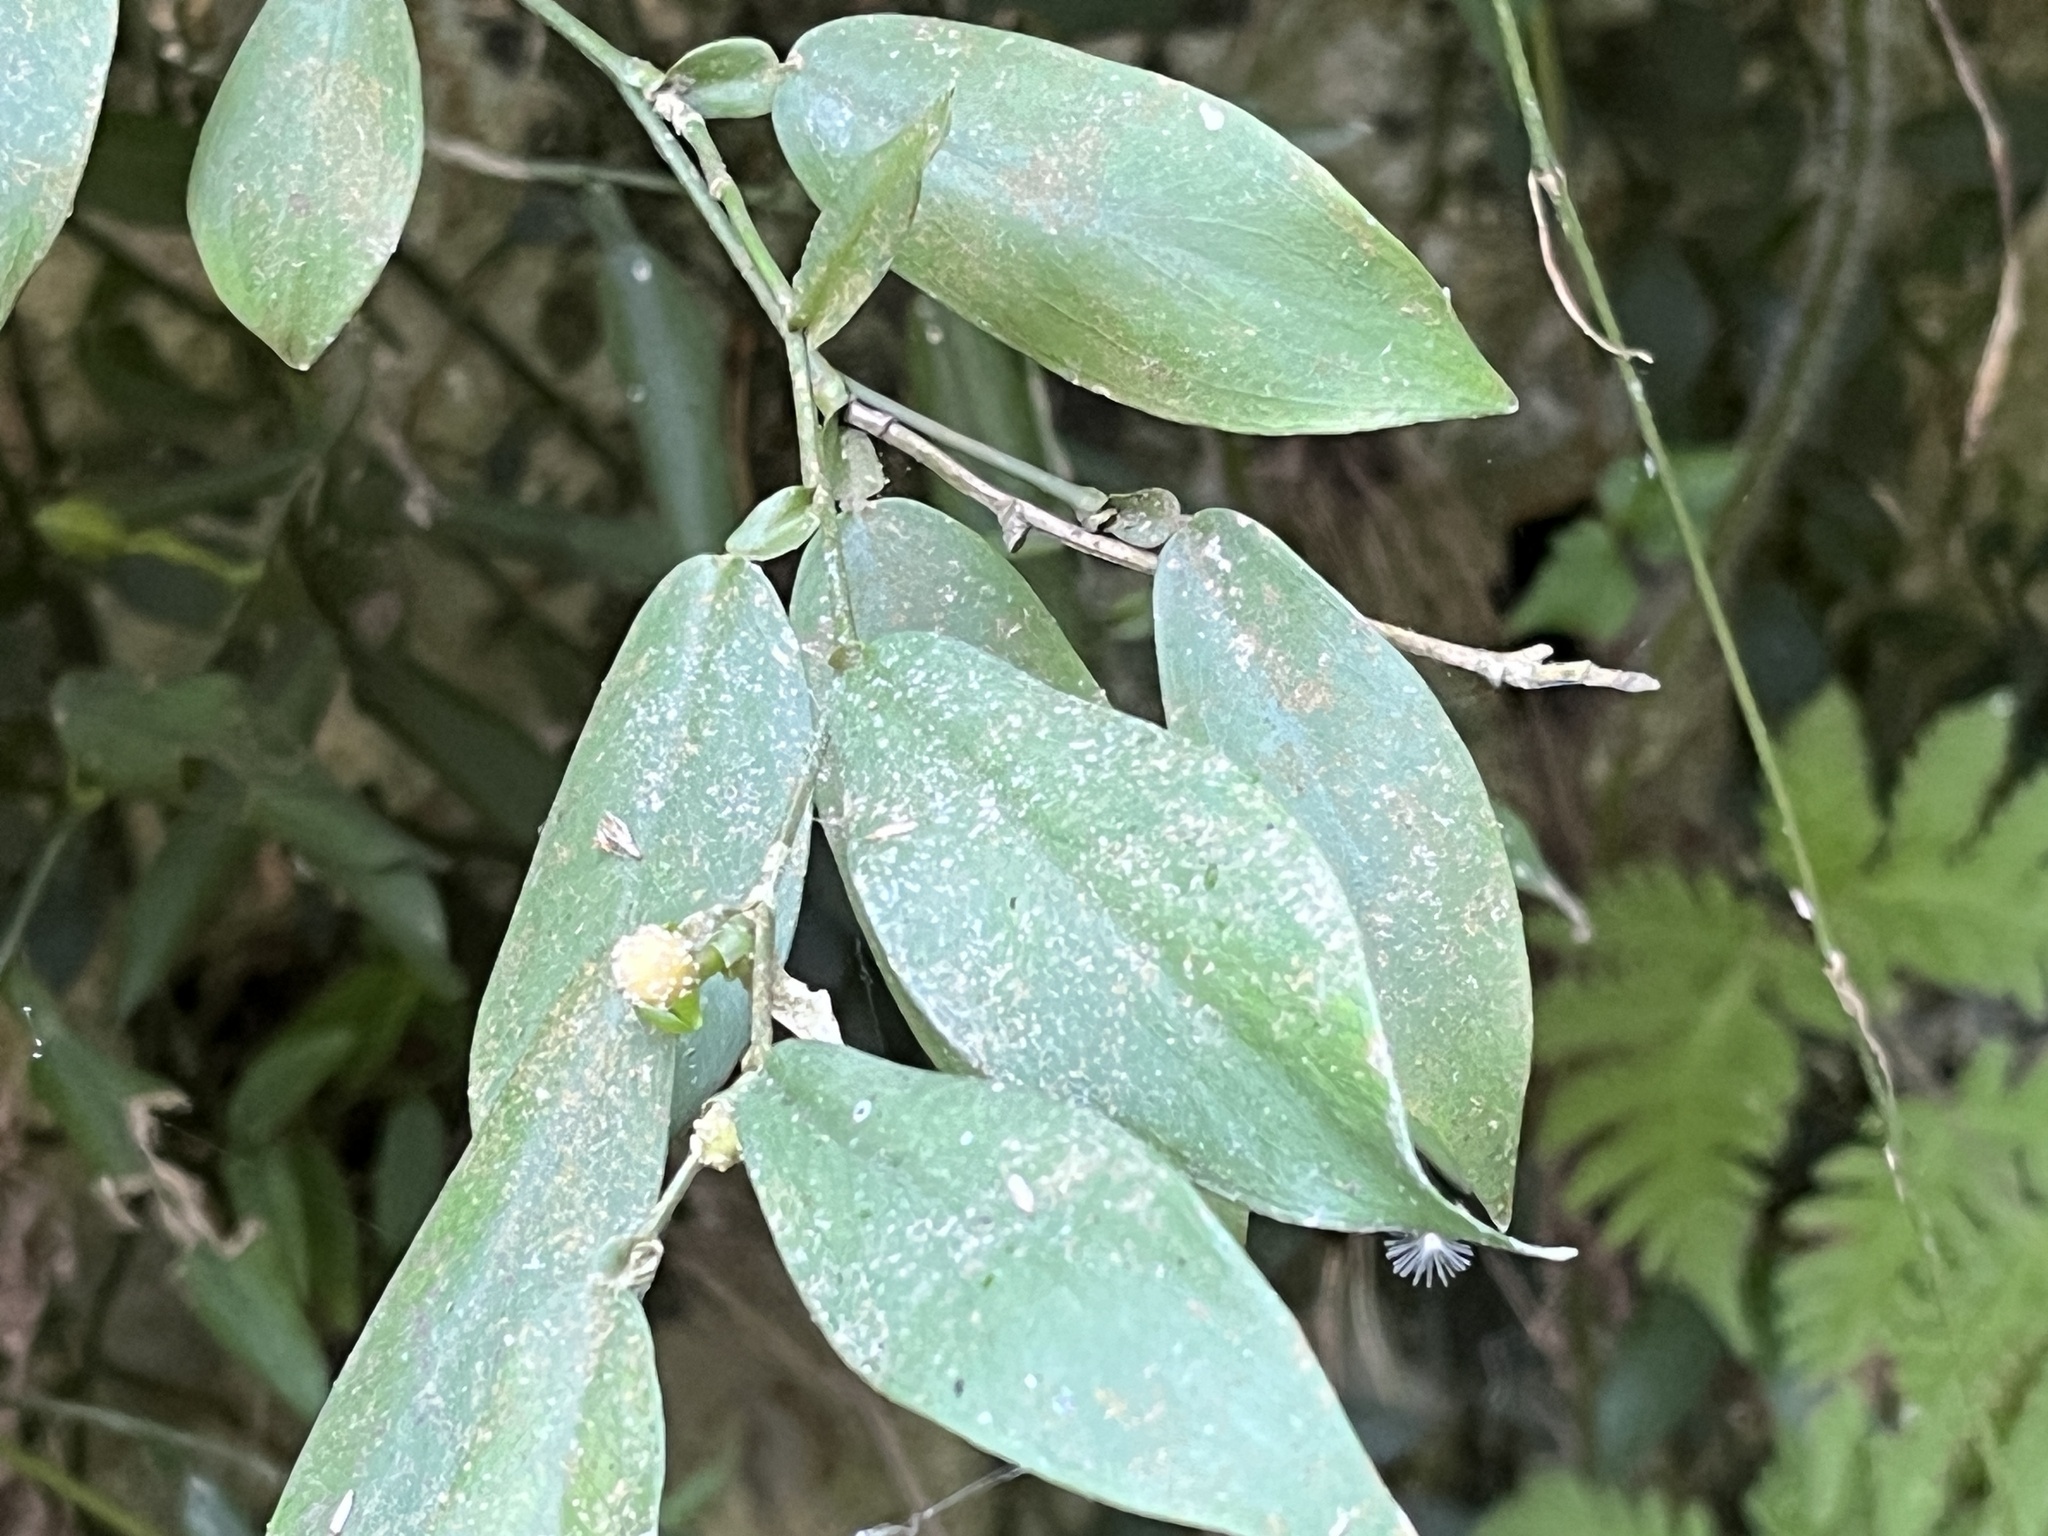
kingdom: Plantae
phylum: Tracheophyta
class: Liliopsida
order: Alismatales
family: Araceae
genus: Pothos
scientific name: Pothos chinensis
